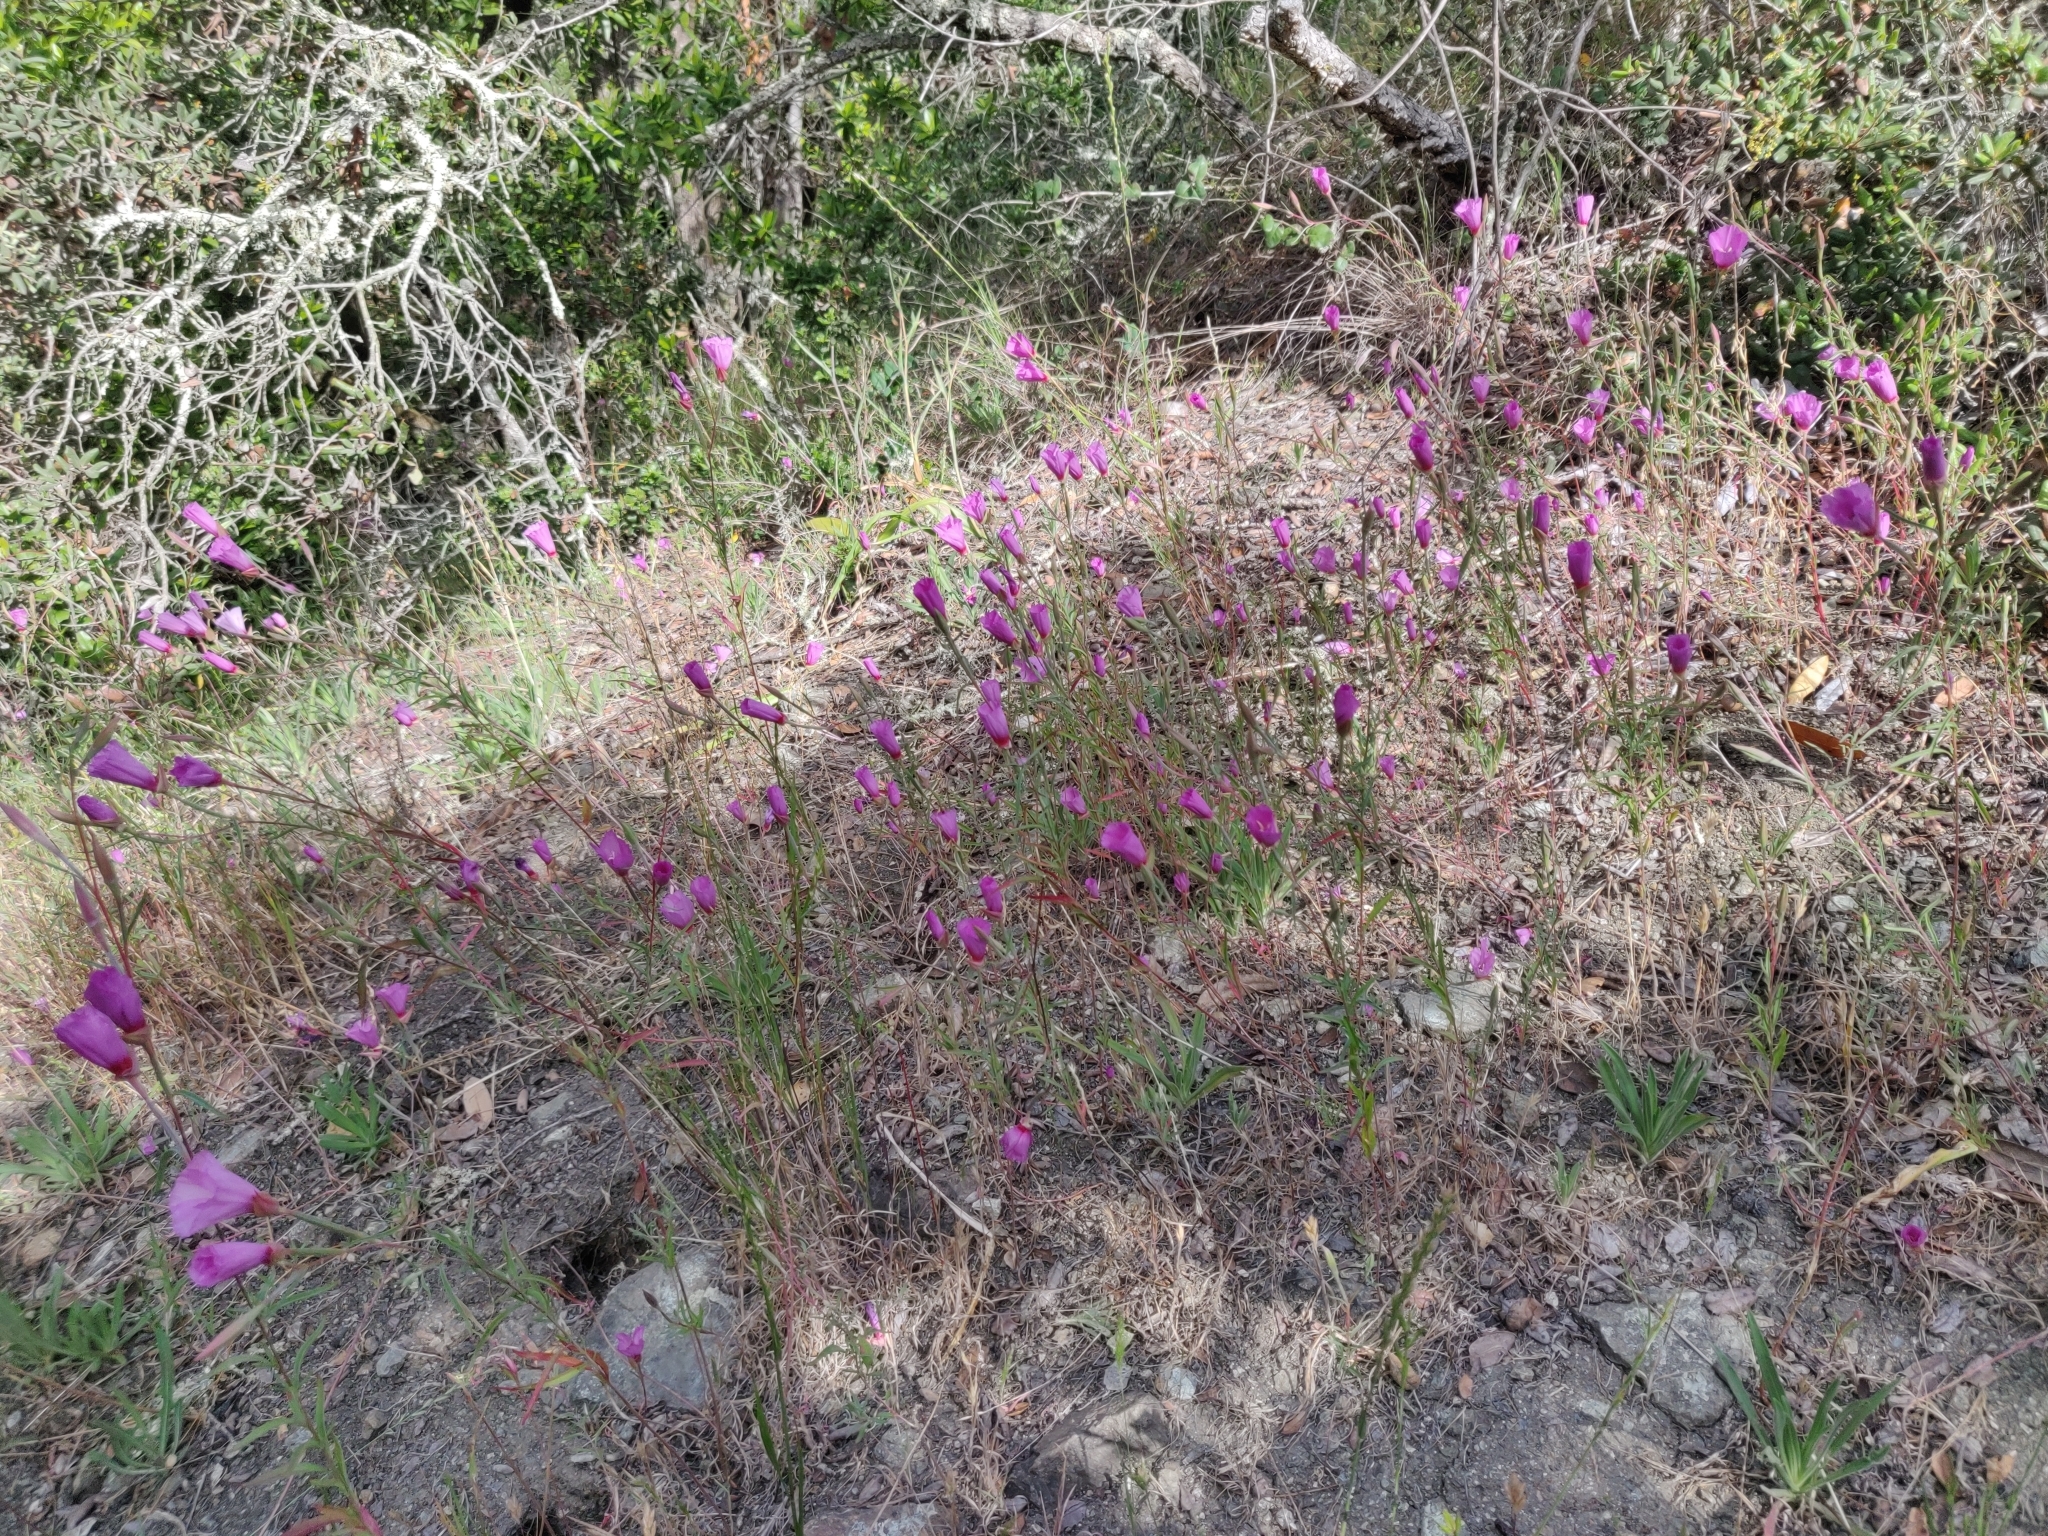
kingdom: Plantae
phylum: Tracheophyta
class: Magnoliopsida
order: Myrtales
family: Onagraceae
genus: Clarkia
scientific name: Clarkia rubicunda
